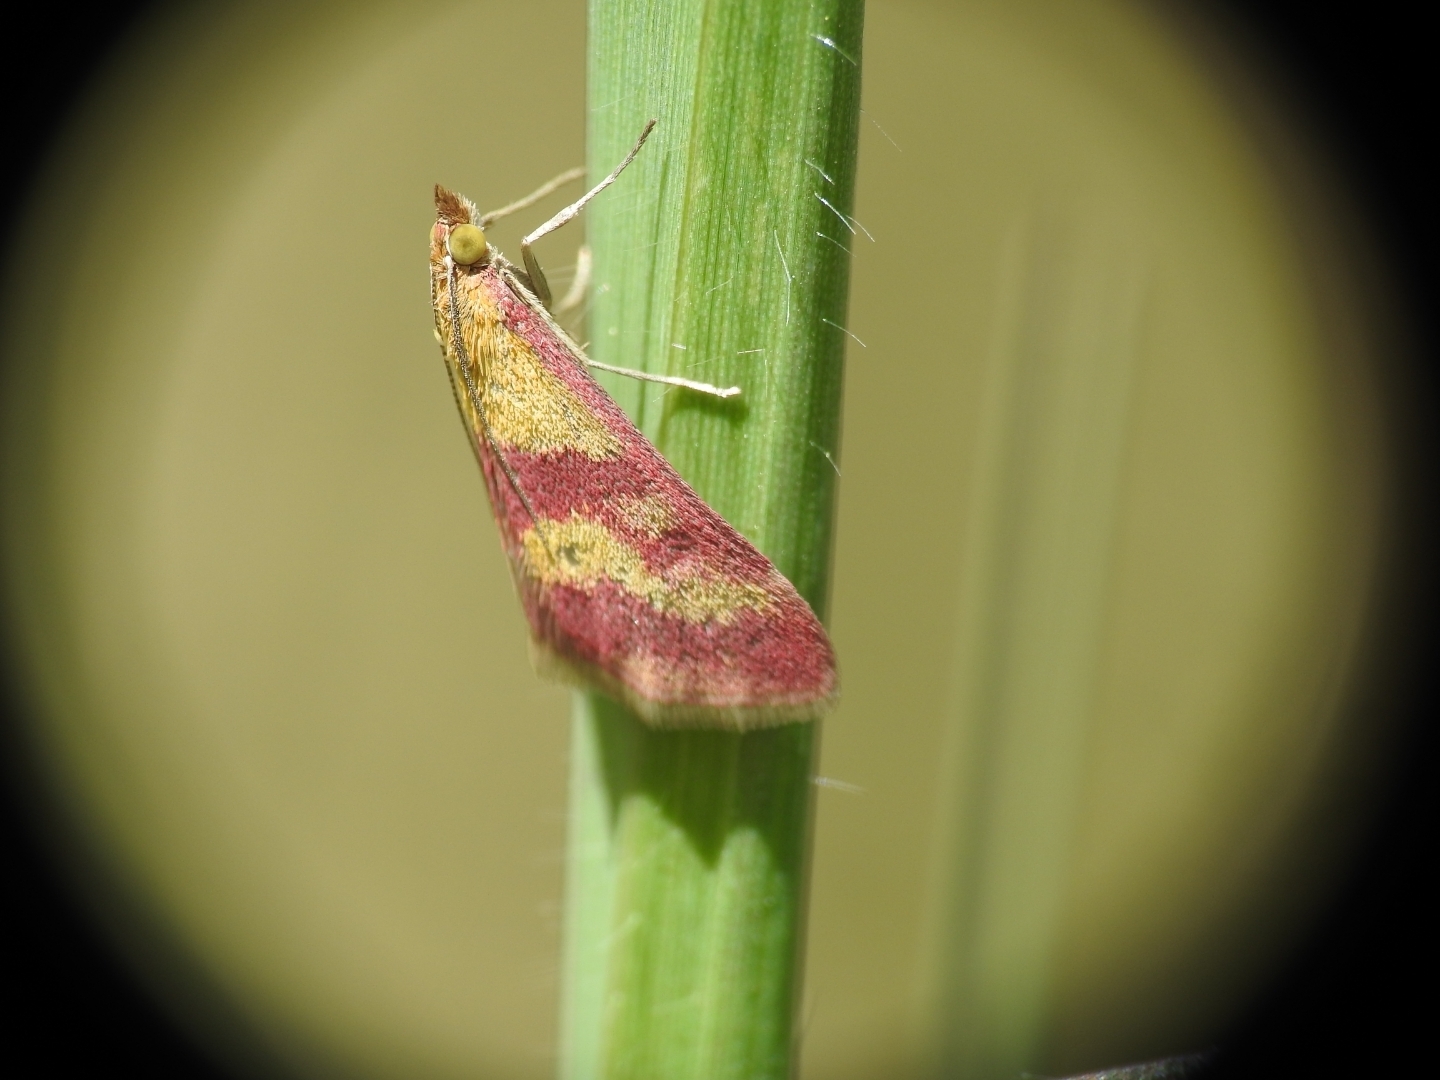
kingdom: Animalia
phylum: Arthropoda
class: Insecta
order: Lepidoptera
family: Crambidae
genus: Pyrausta
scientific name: Pyrausta sanguinalis
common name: Scarce crimson and gold
